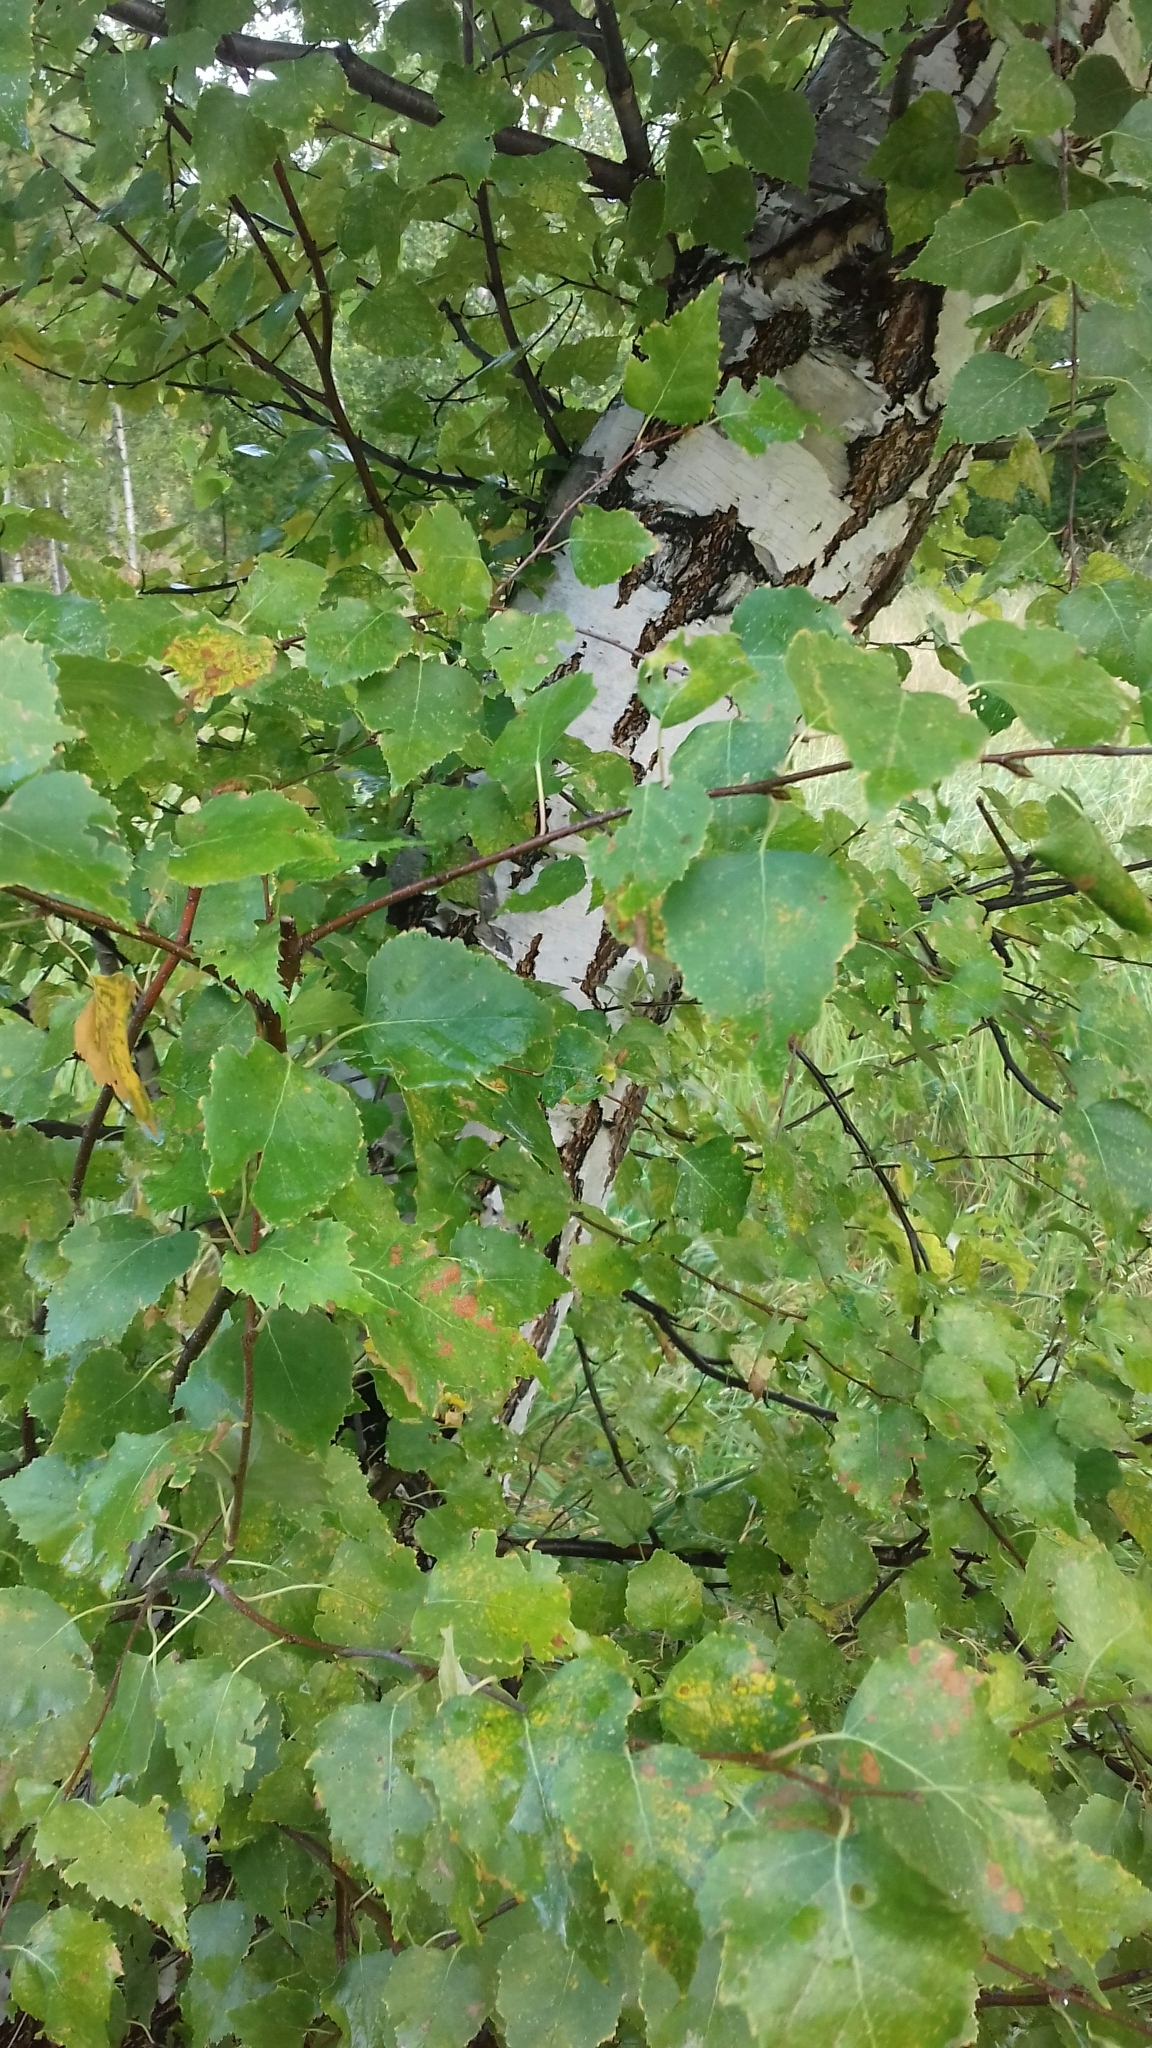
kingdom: Plantae
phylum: Tracheophyta
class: Magnoliopsida
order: Fagales
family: Betulaceae
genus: Betula
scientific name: Betula pendula
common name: Silver birch
